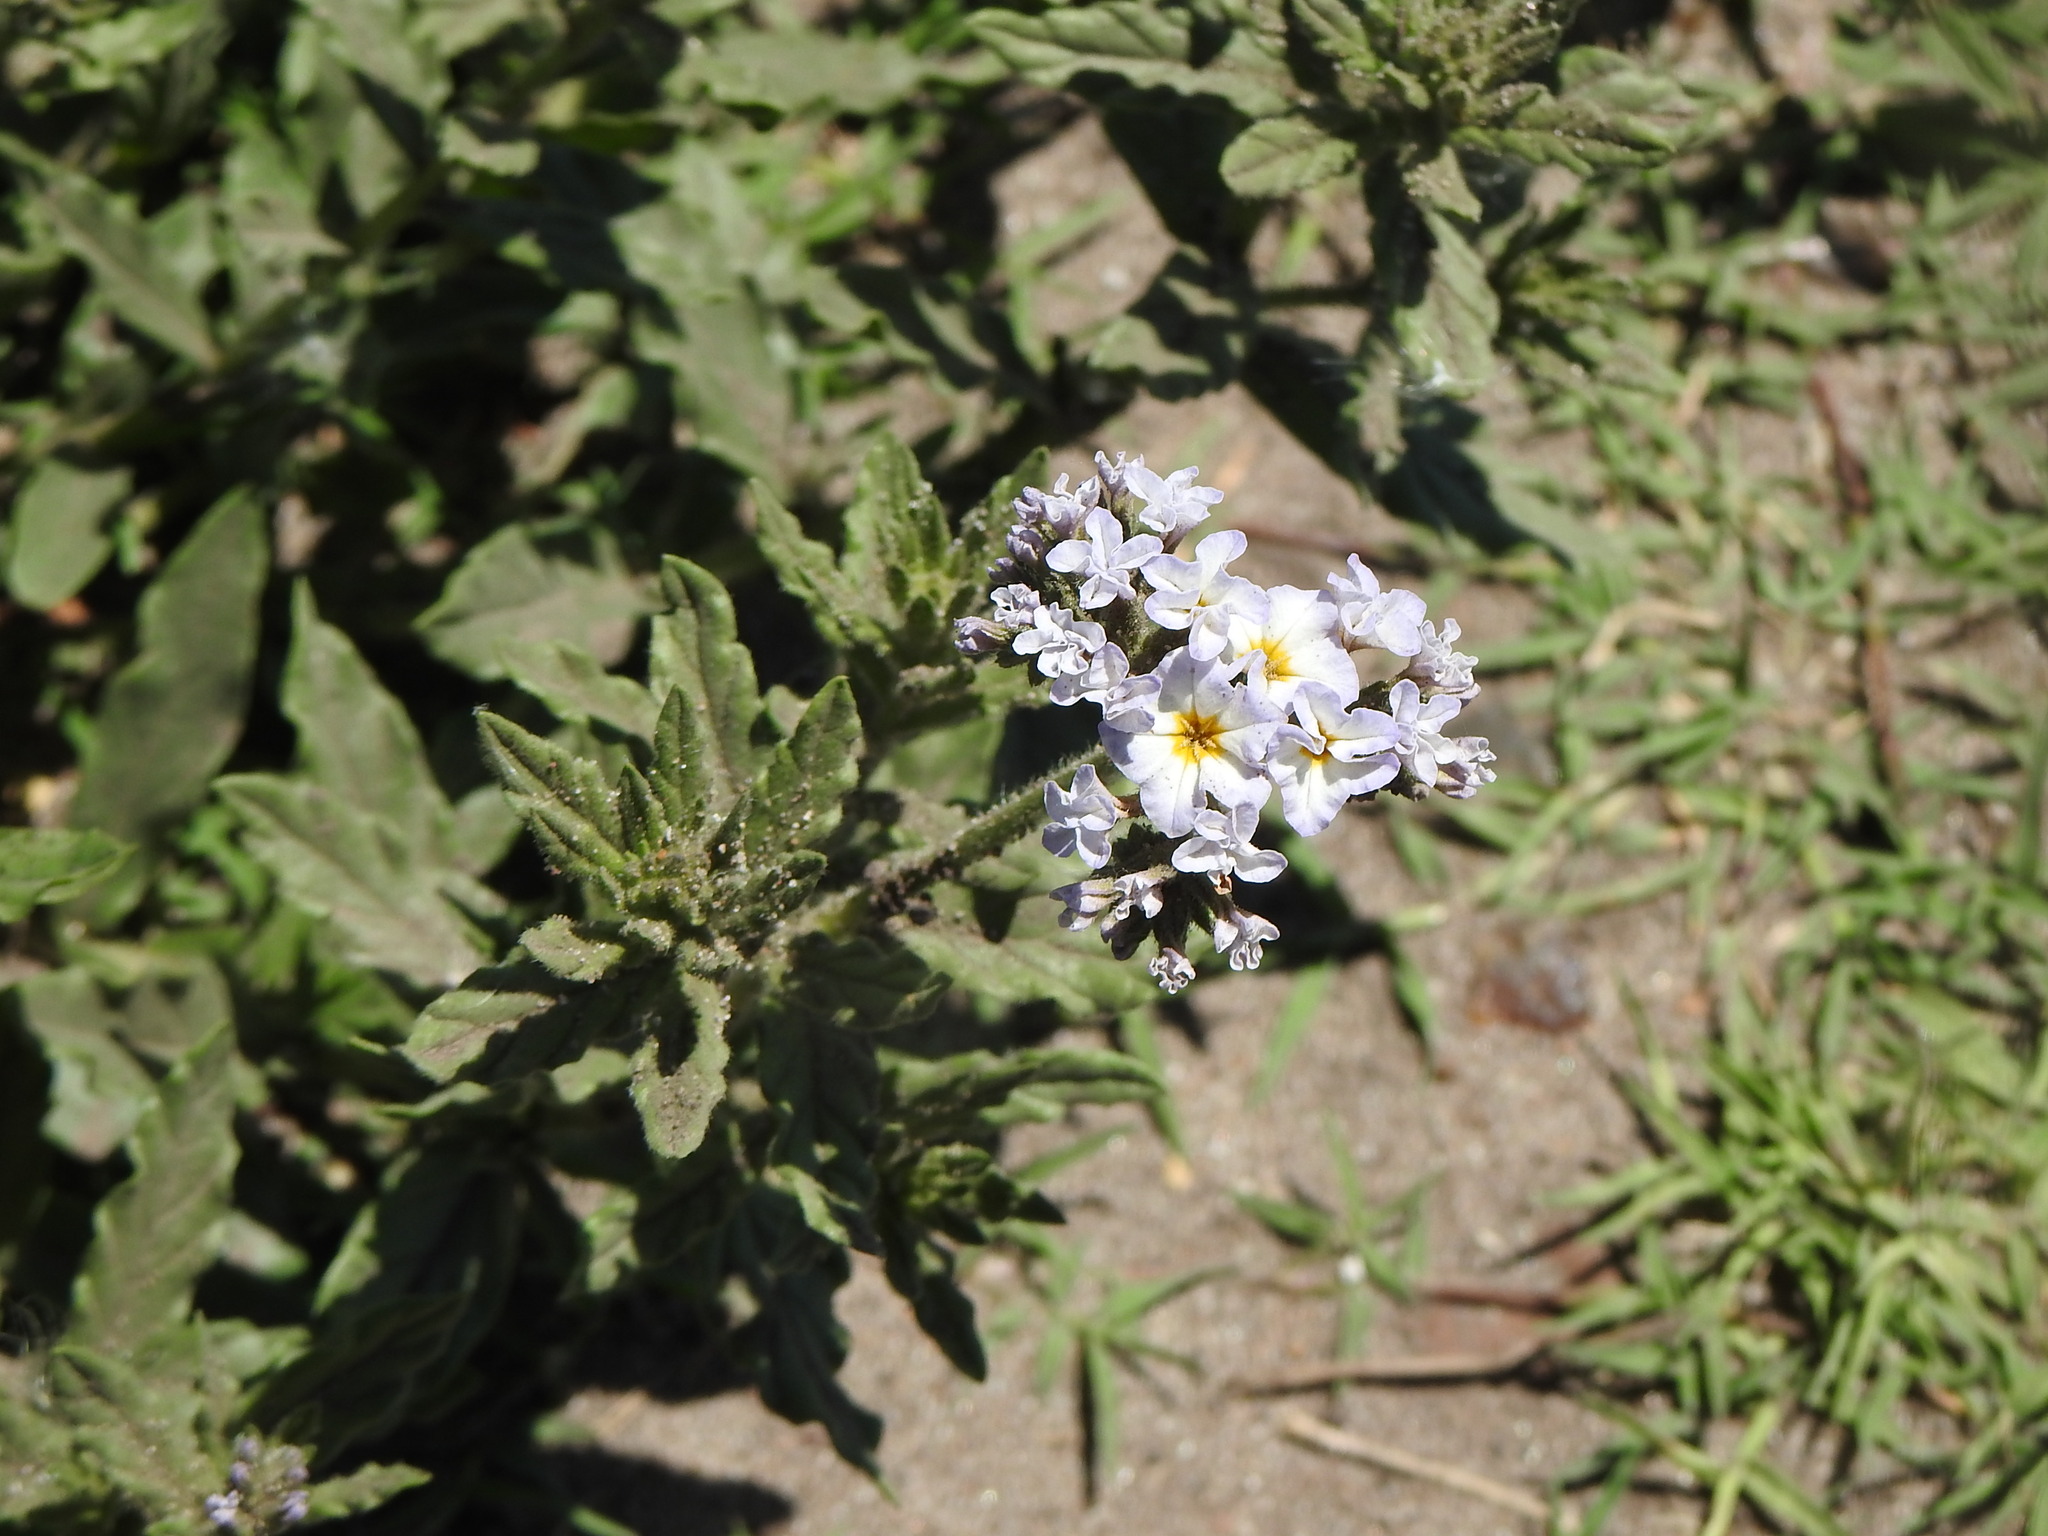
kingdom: Plantae
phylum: Tracheophyta
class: Magnoliopsida
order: Boraginales
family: Heliotropiaceae
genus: Heliotropium
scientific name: Heliotropium amplexicaule
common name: Clasping heliotrope
